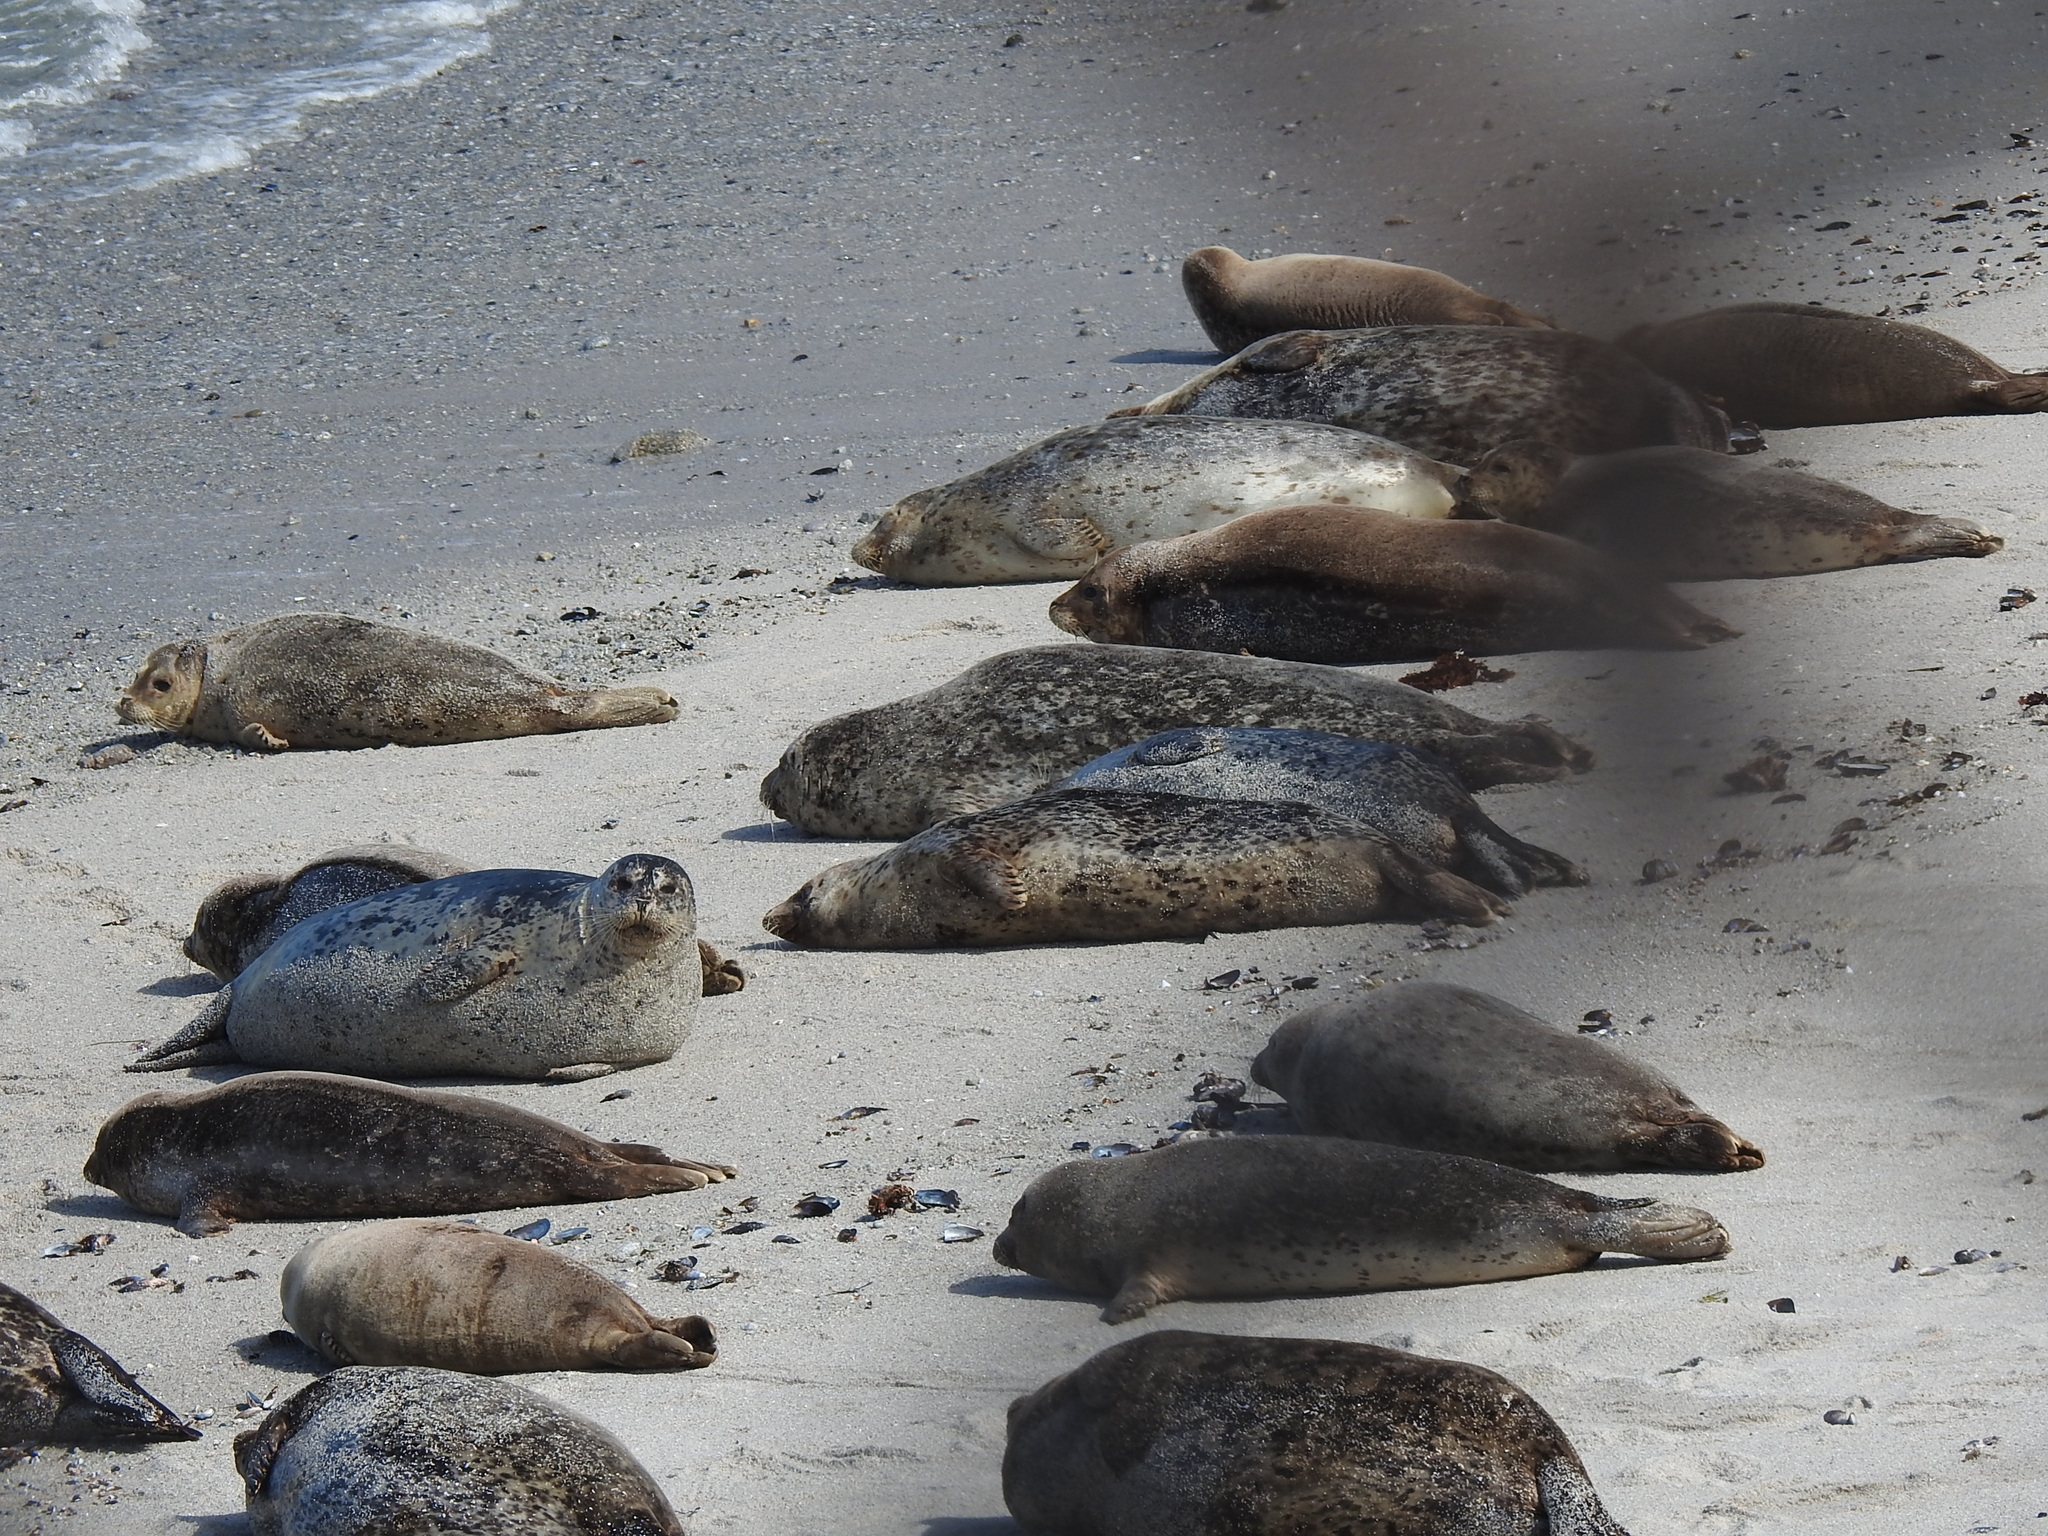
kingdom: Animalia
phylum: Chordata
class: Mammalia
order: Carnivora
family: Phocidae
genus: Phoca
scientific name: Phoca vitulina
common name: Harbor seal
